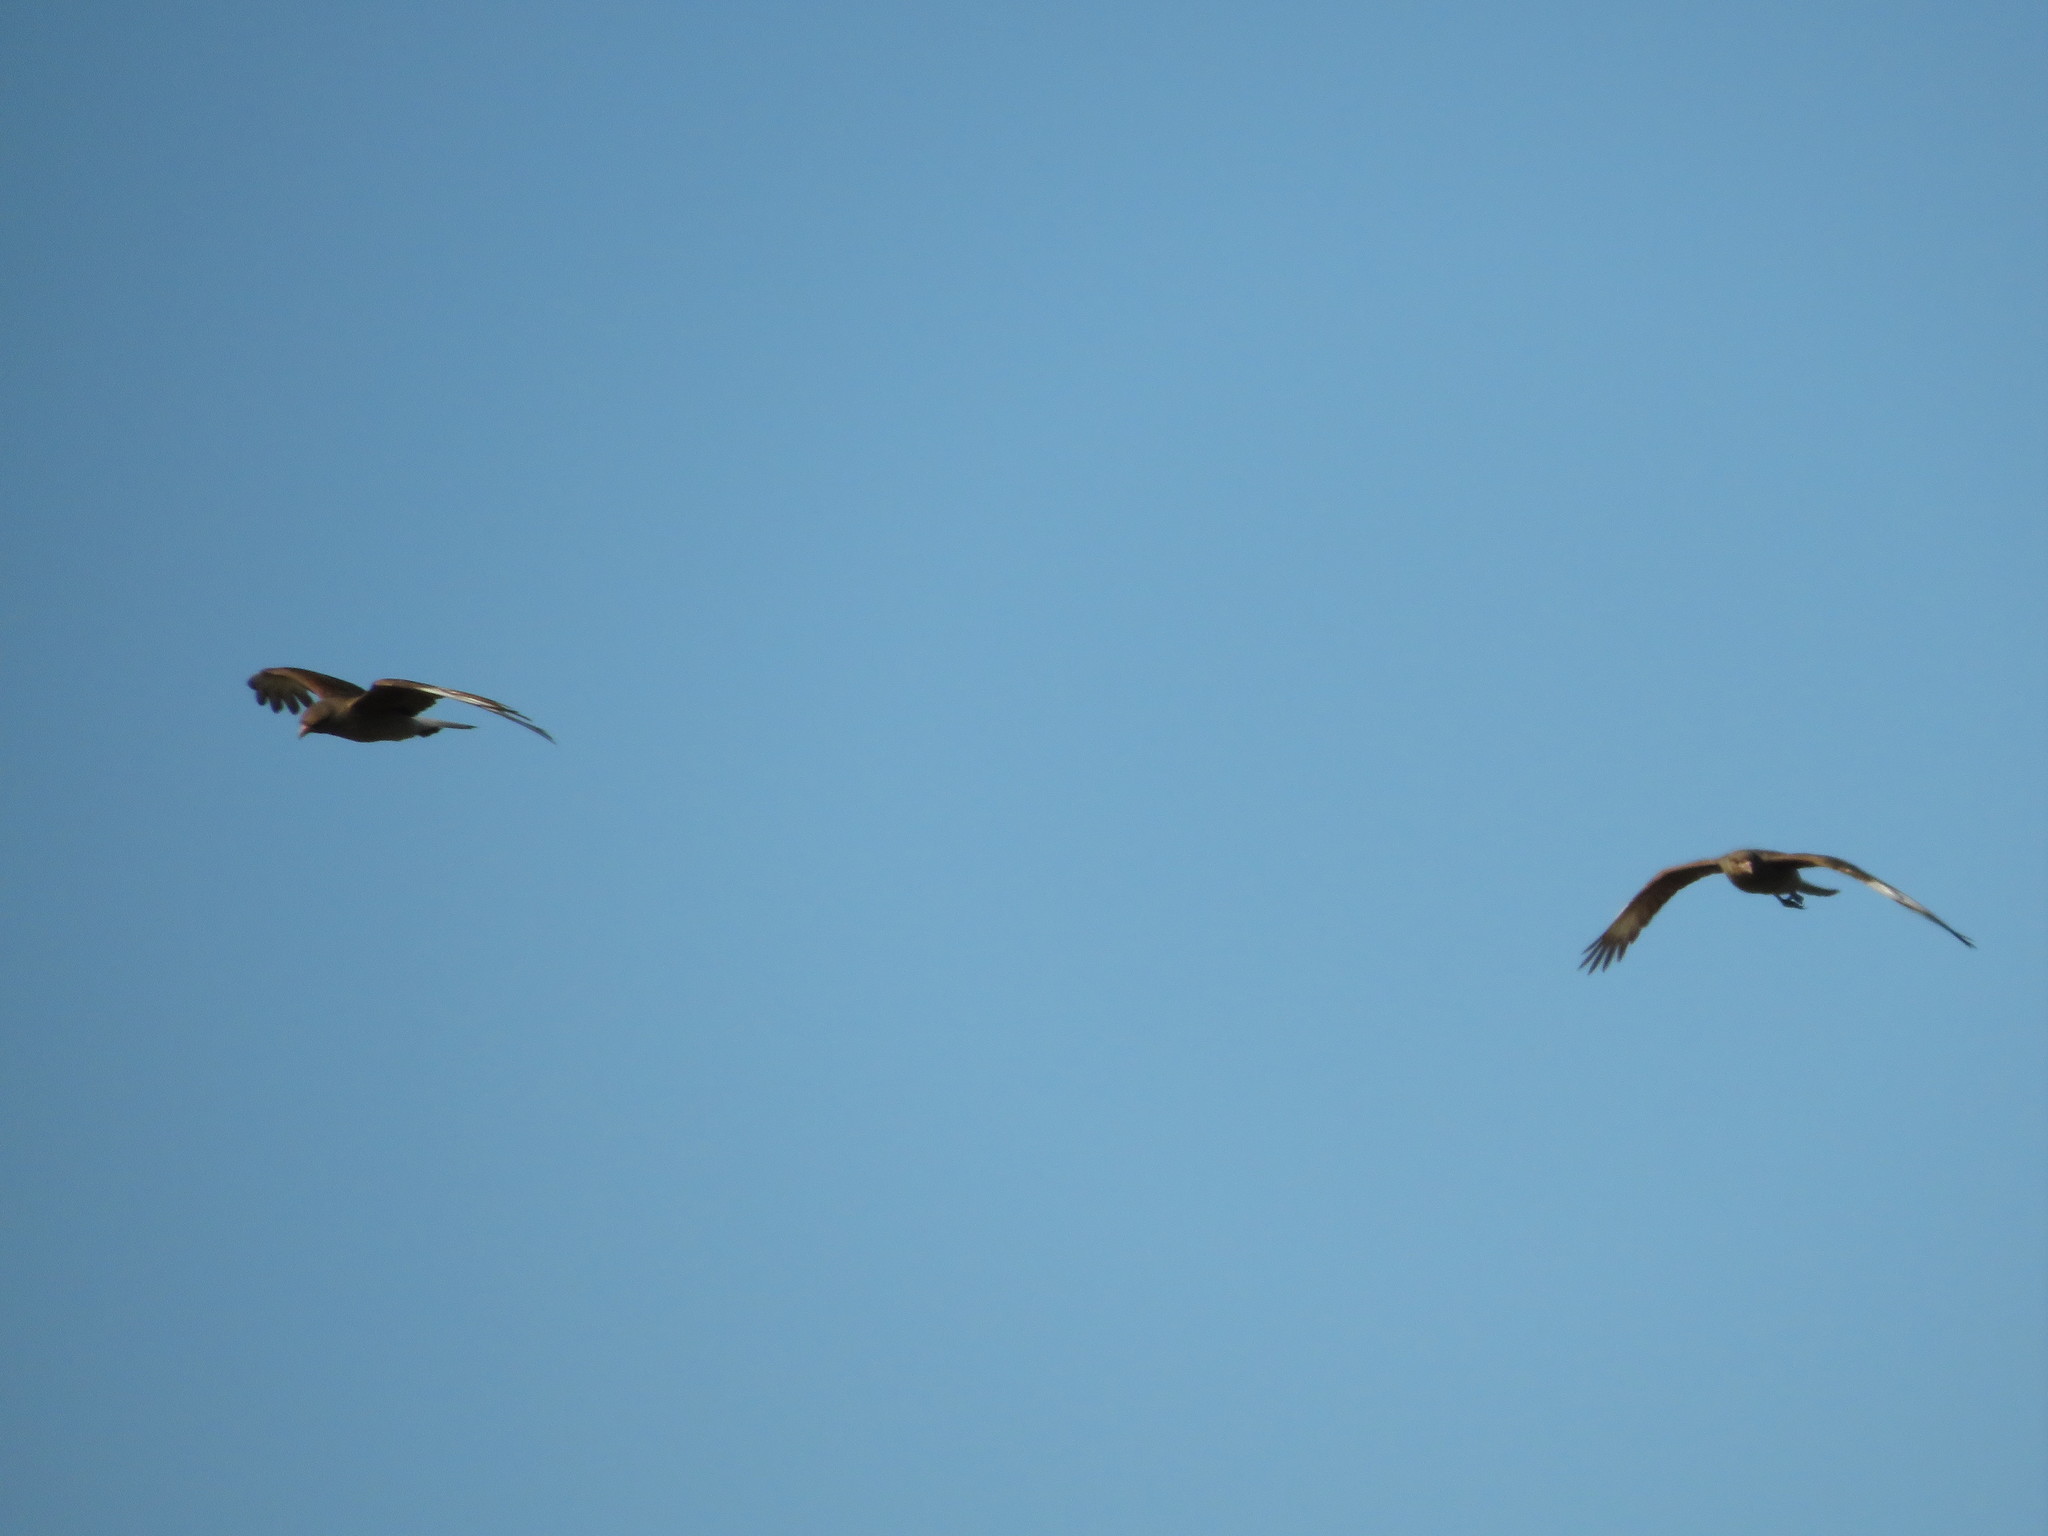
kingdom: Animalia
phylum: Chordata
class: Aves
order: Falconiformes
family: Falconidae
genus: Daptrius
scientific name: Daptrius
